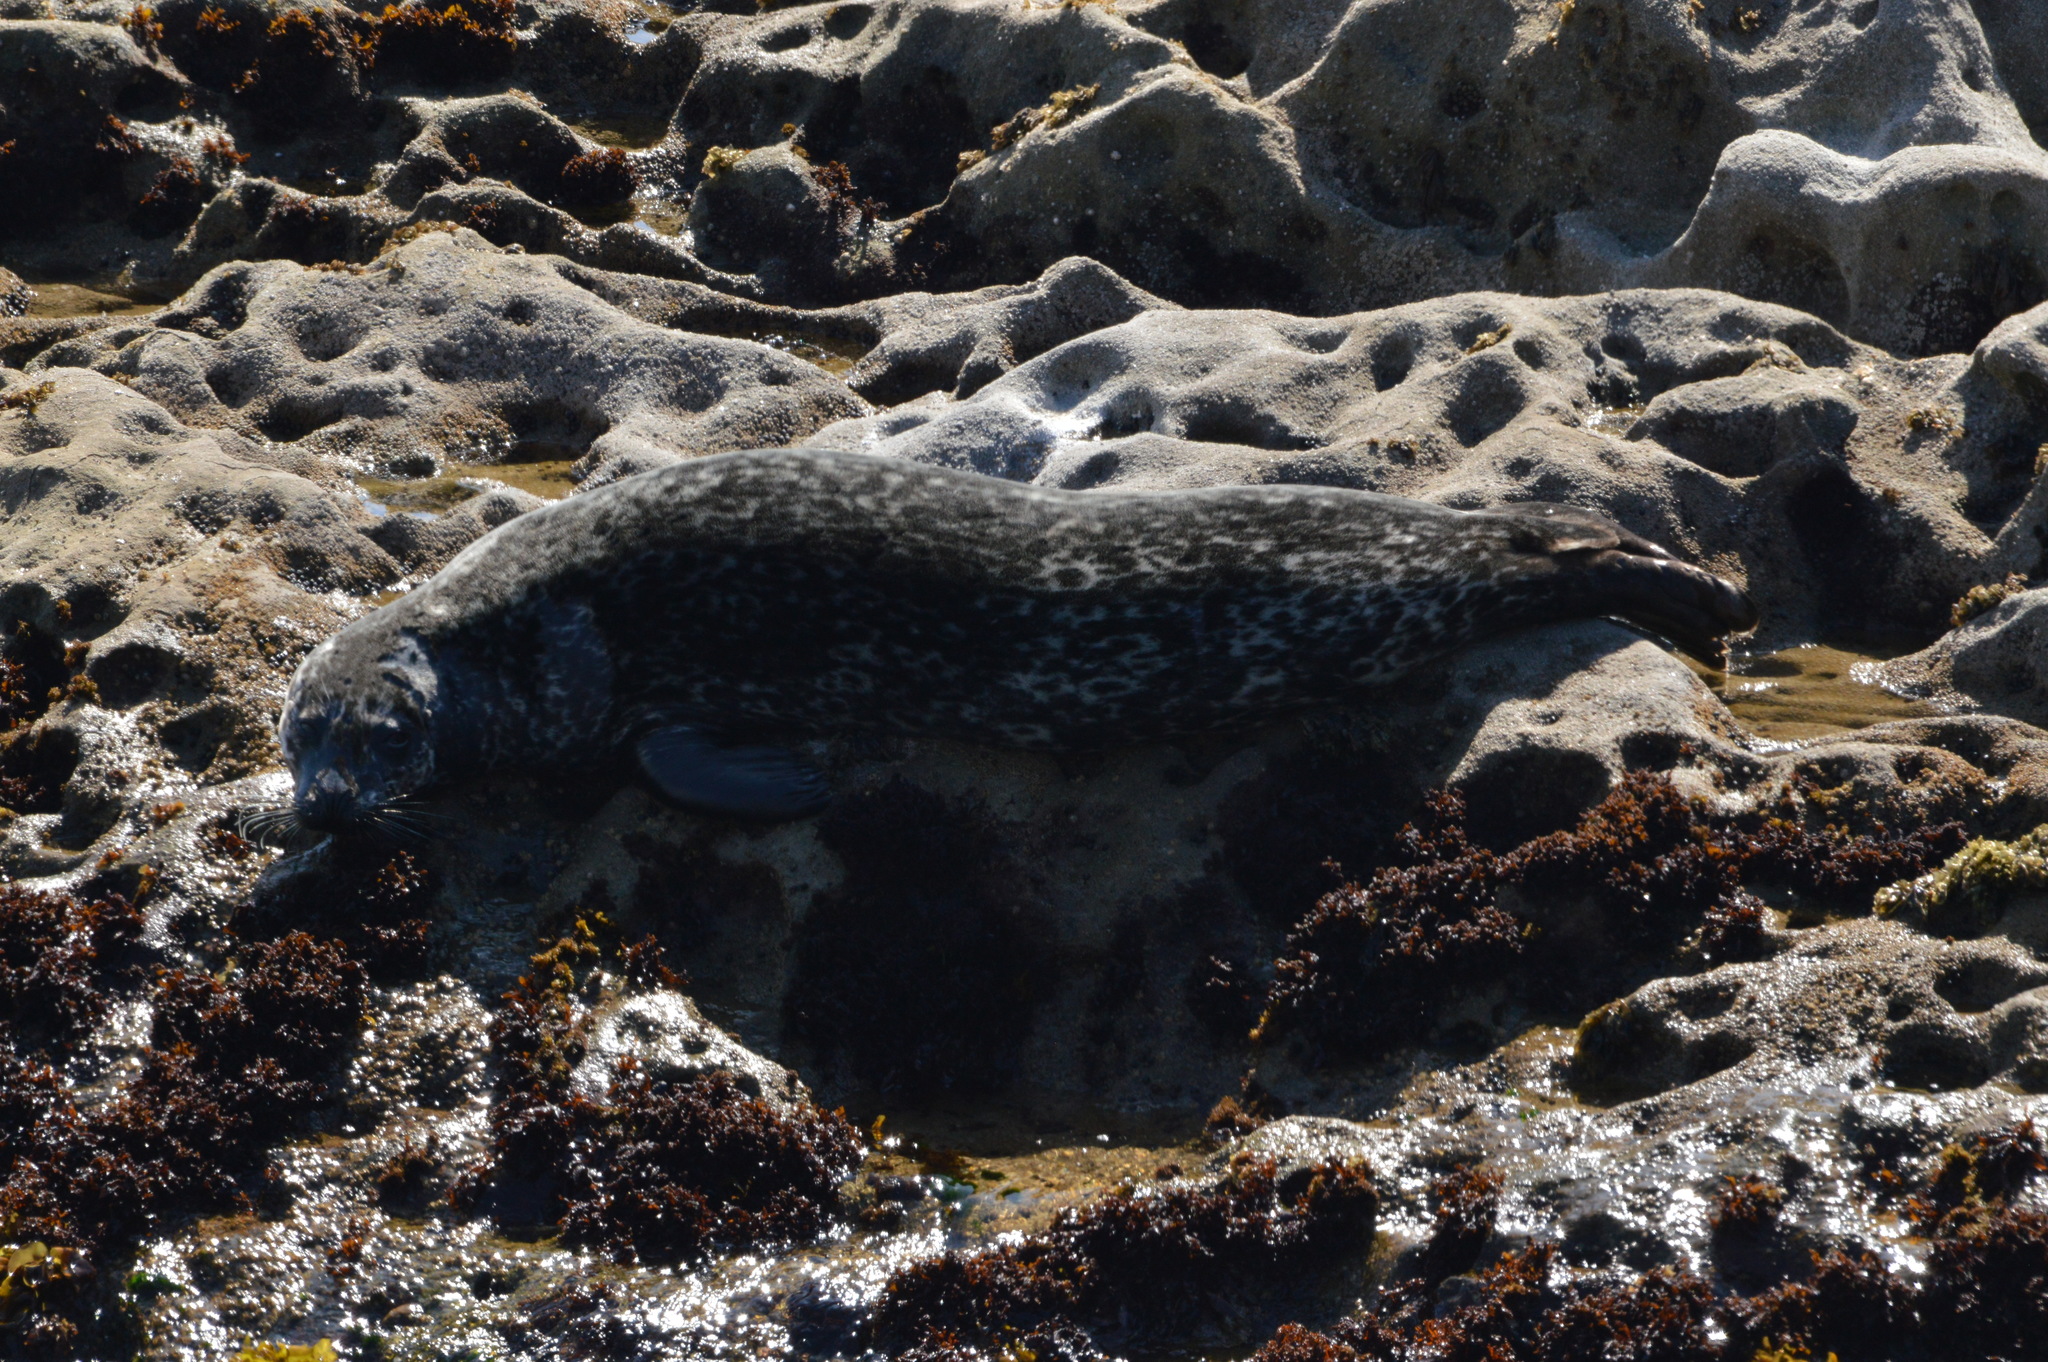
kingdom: Animalia
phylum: Chordata
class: Mammalia
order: Carnivora
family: Phocidae
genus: Phoca
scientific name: Phoca vitulina
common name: Harbor seal
